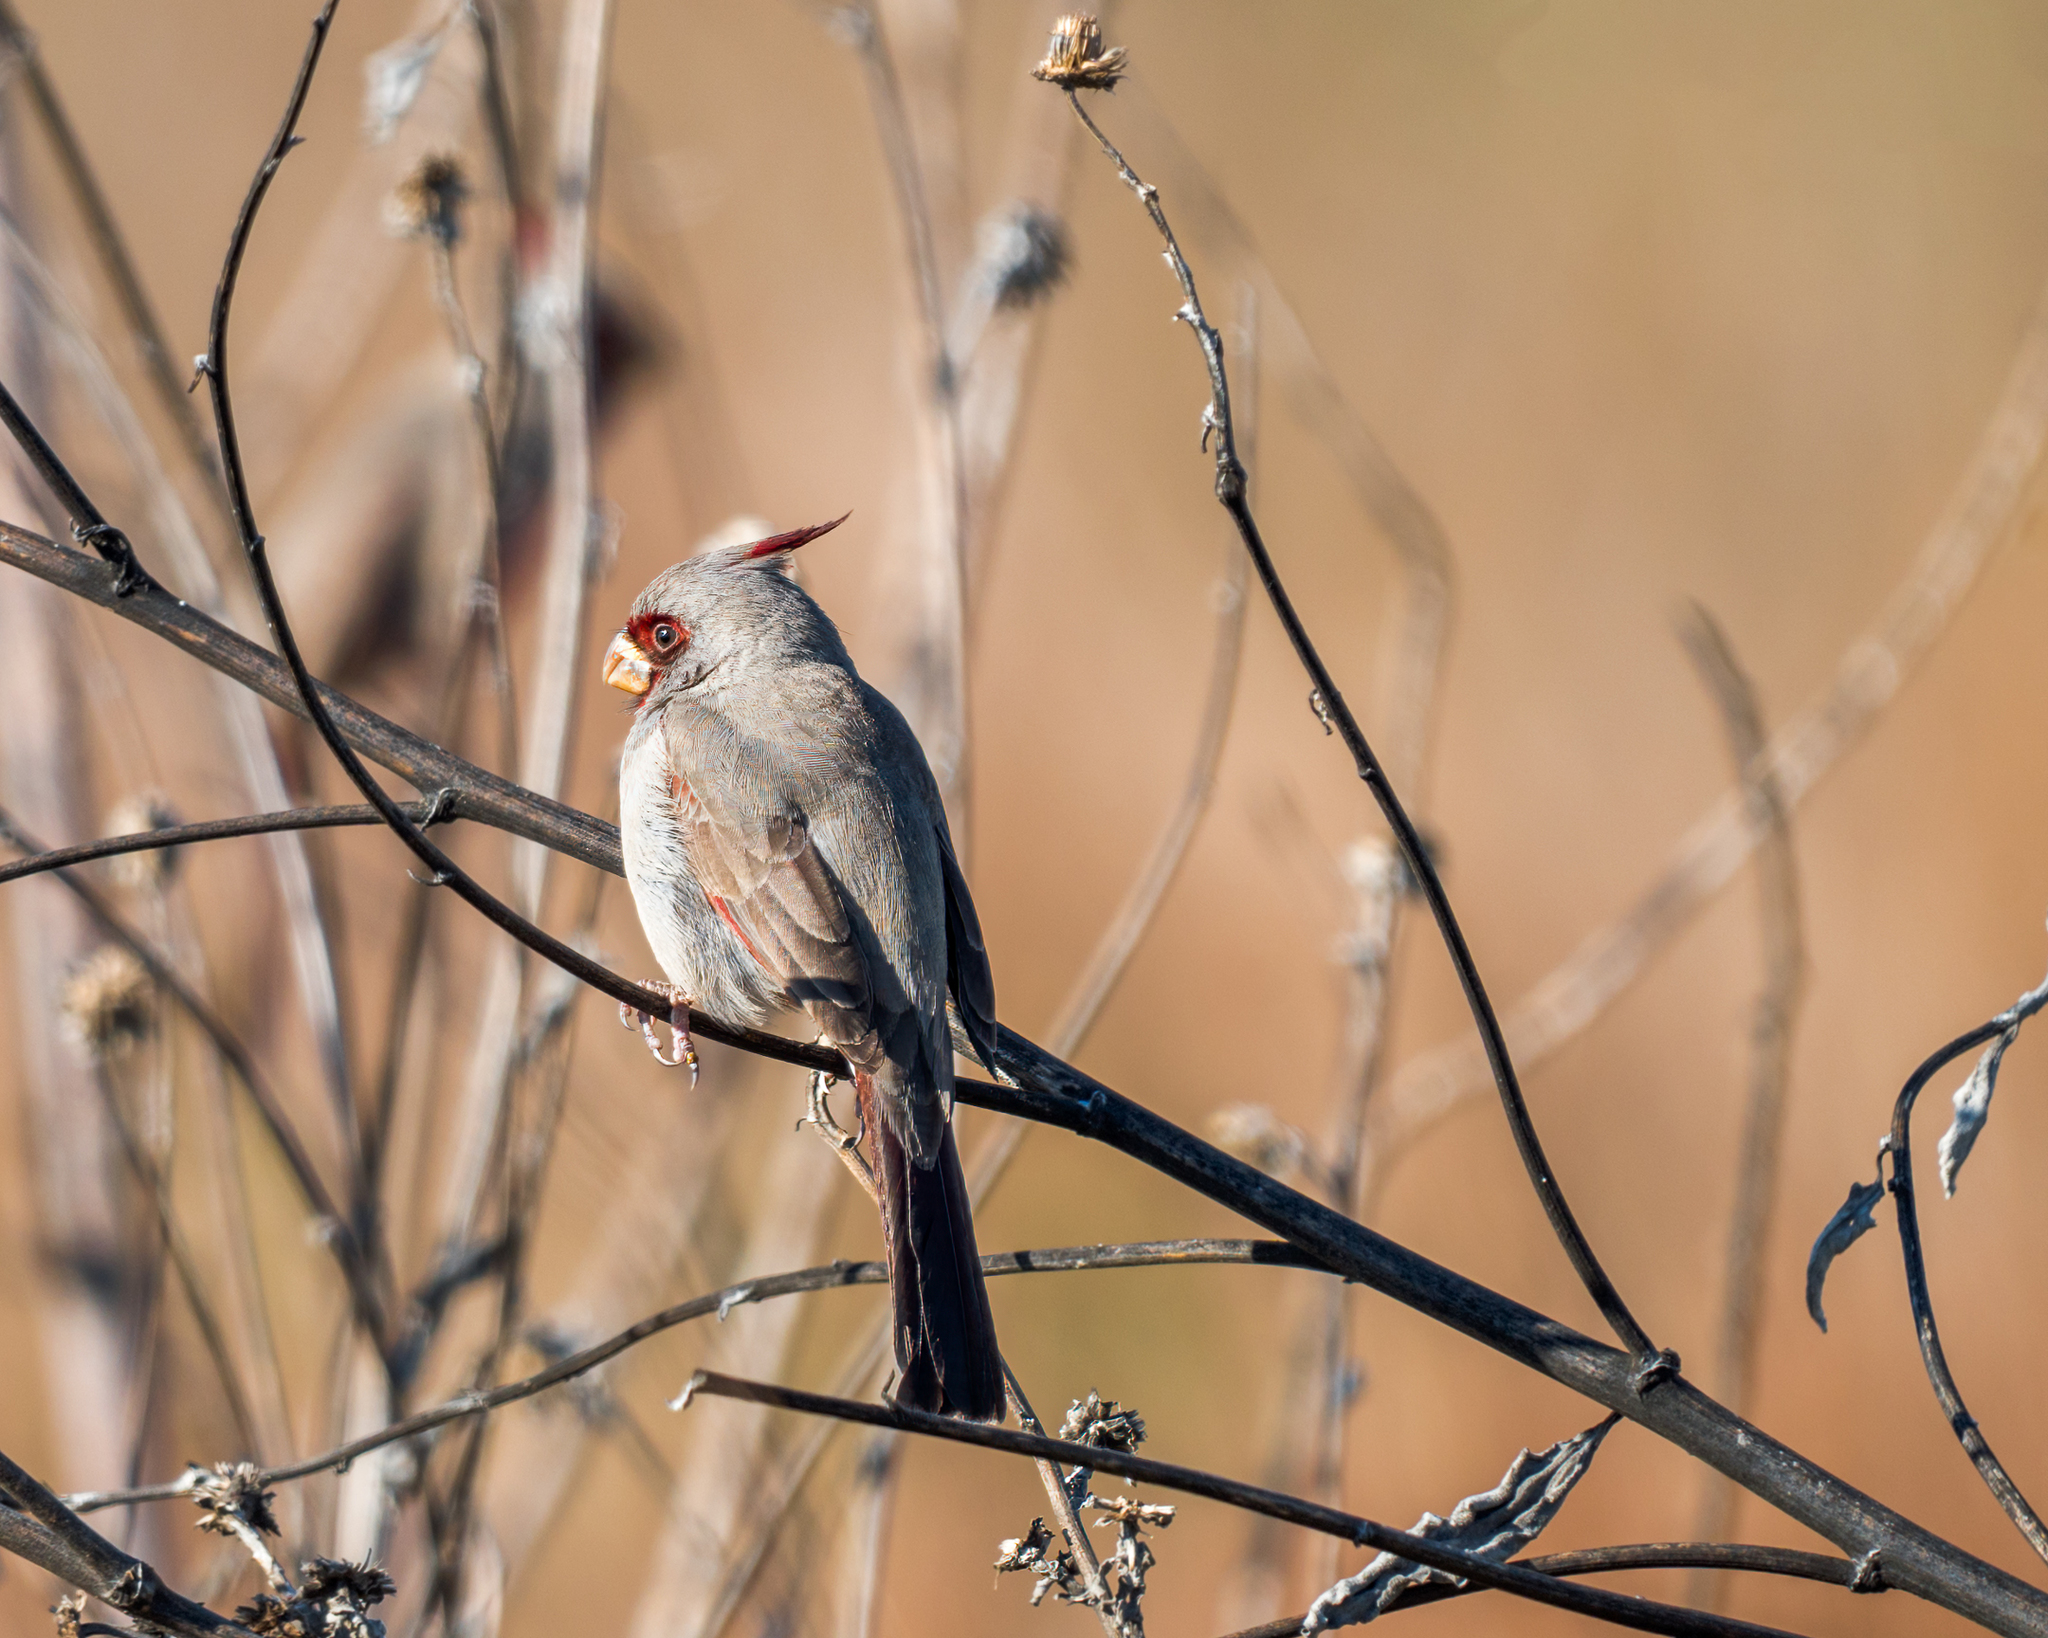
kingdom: Animalia
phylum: Chordata
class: Aves
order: Passeriformes
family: Cardinalidae
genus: Cardinalis
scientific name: Cardinalis sinuatus
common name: Pyrrhuloxia
